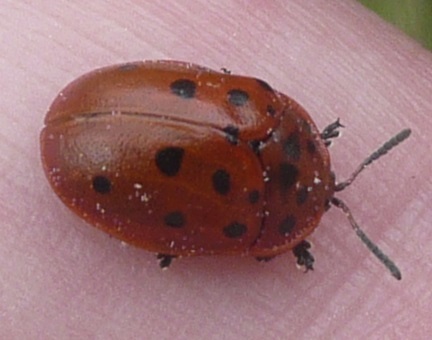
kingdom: Animalia
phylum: Arthropoda
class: Insecta
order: Coleoptera
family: Chrysomelidae
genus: Chelymorpha
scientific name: Chelymorpha cassidea
